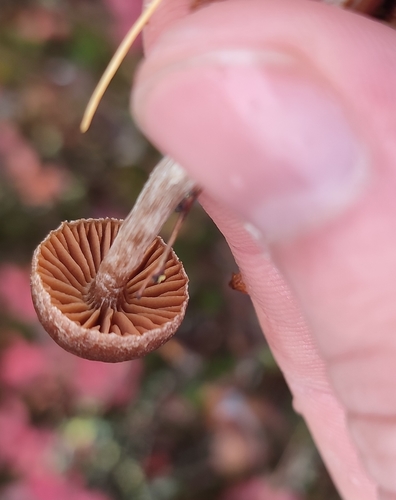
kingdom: Fungi
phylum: Basidiomycota
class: Agaricomycetes
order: Agaricales
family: Cortinariaceae
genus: Cortinarius
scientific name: Cortinarius
